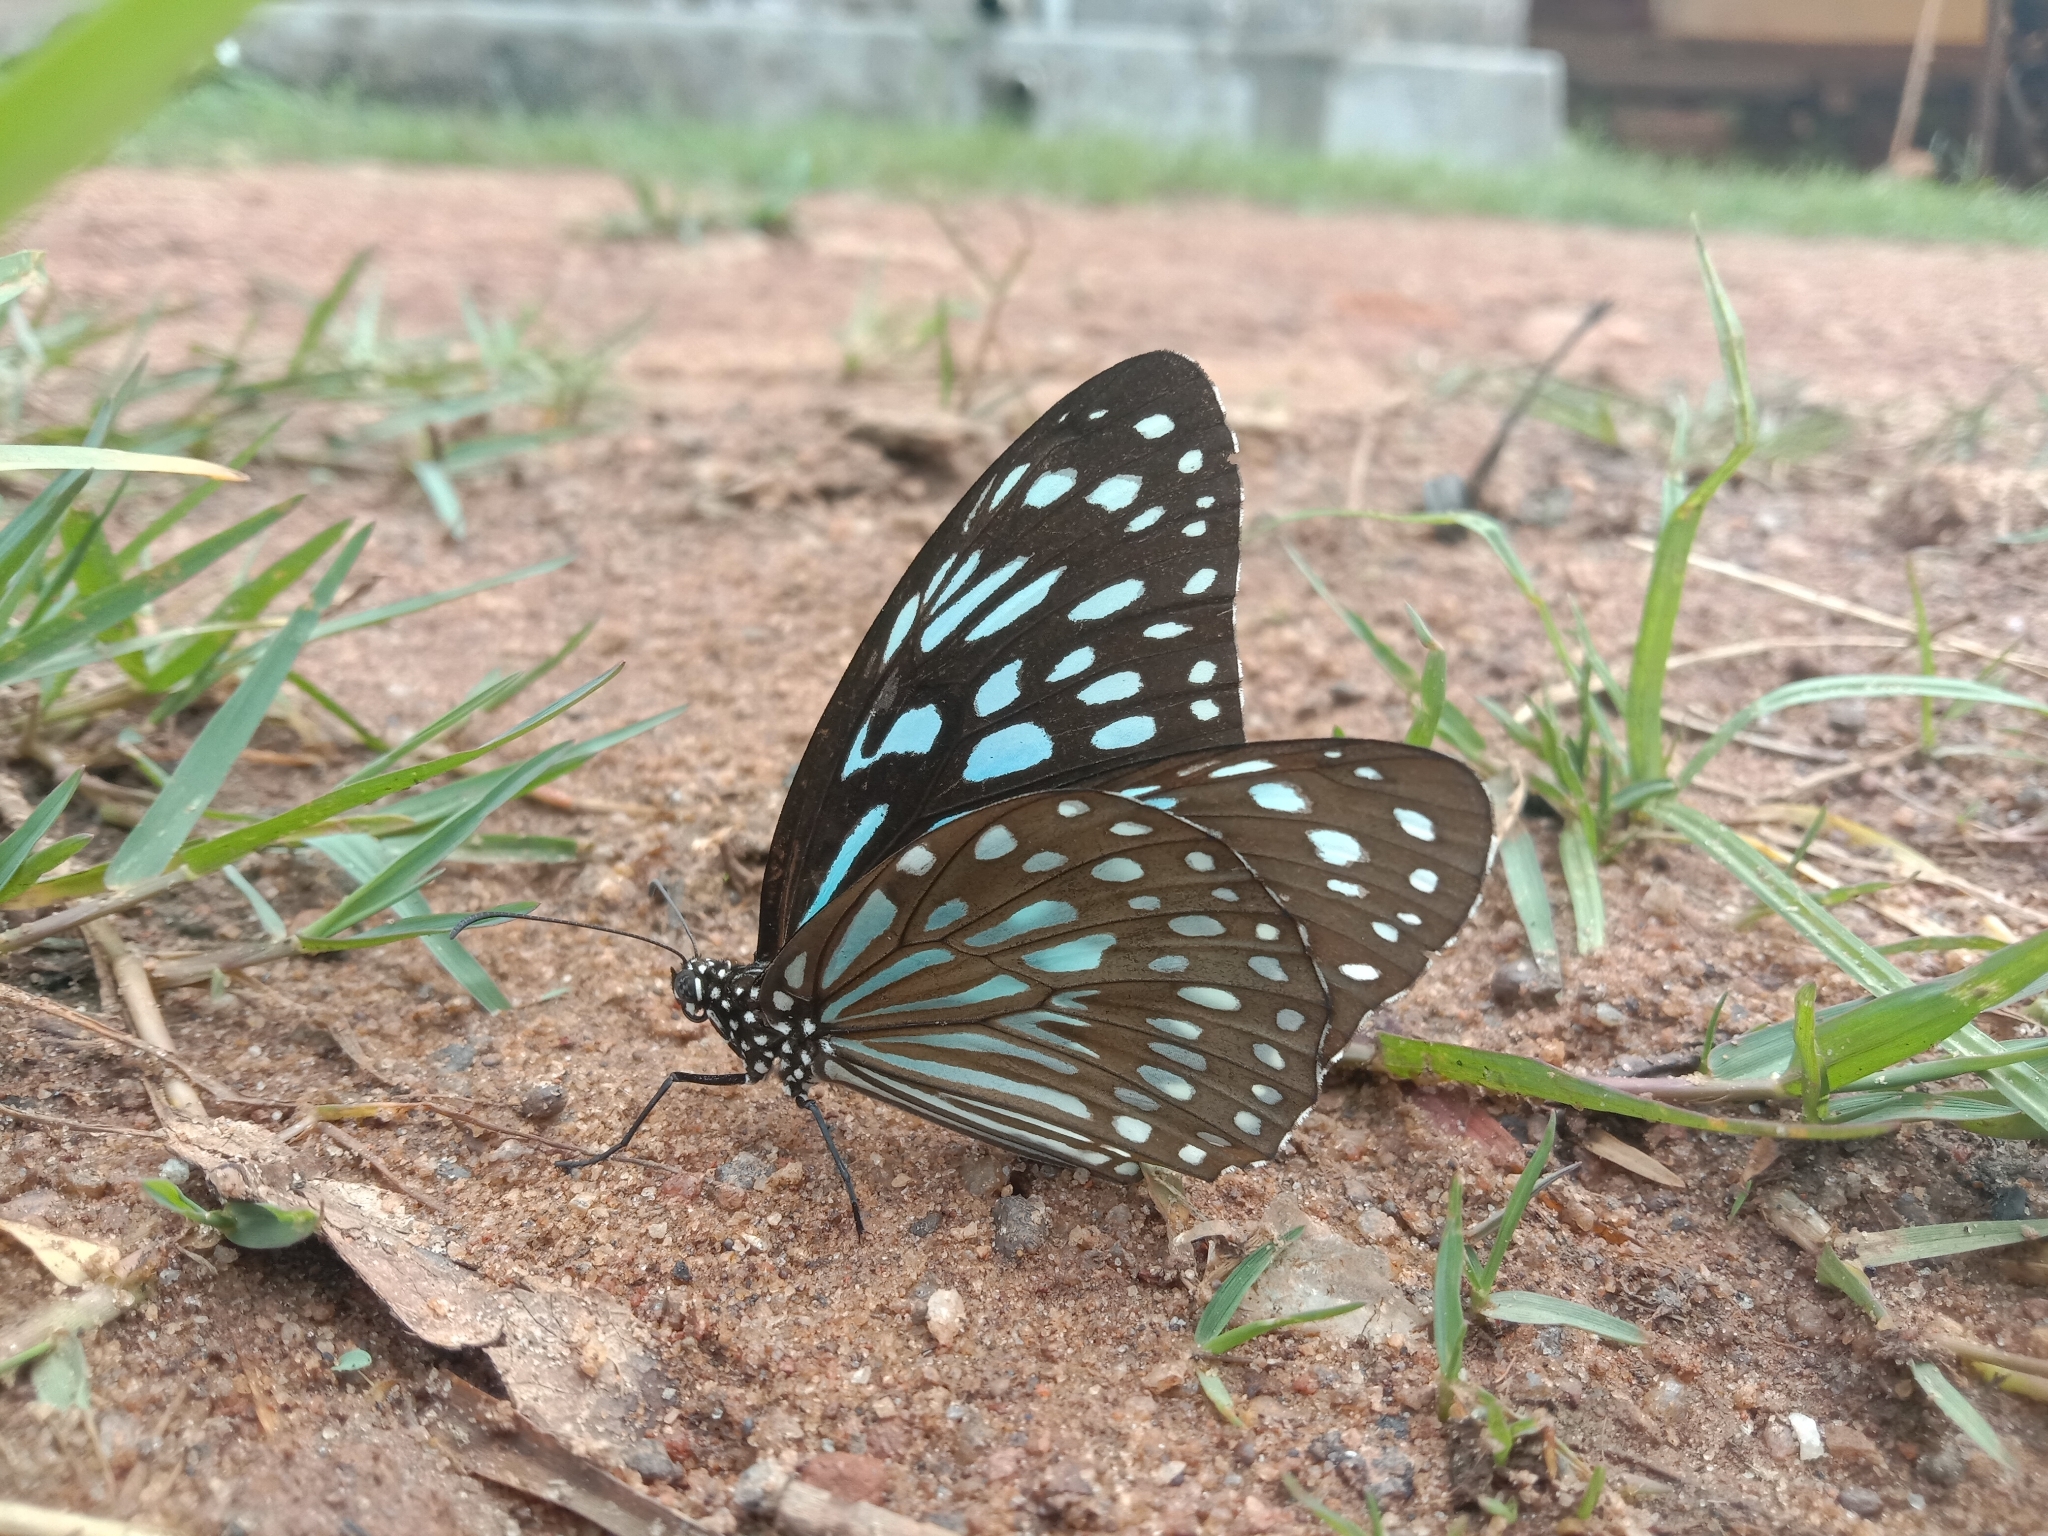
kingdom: Animalia
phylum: Arthropoda
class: Insecta
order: Lepidoptera
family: Nymphalidae
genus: Tirumala
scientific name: Tirumala septentrionis
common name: Dark blue tiger butterfly
